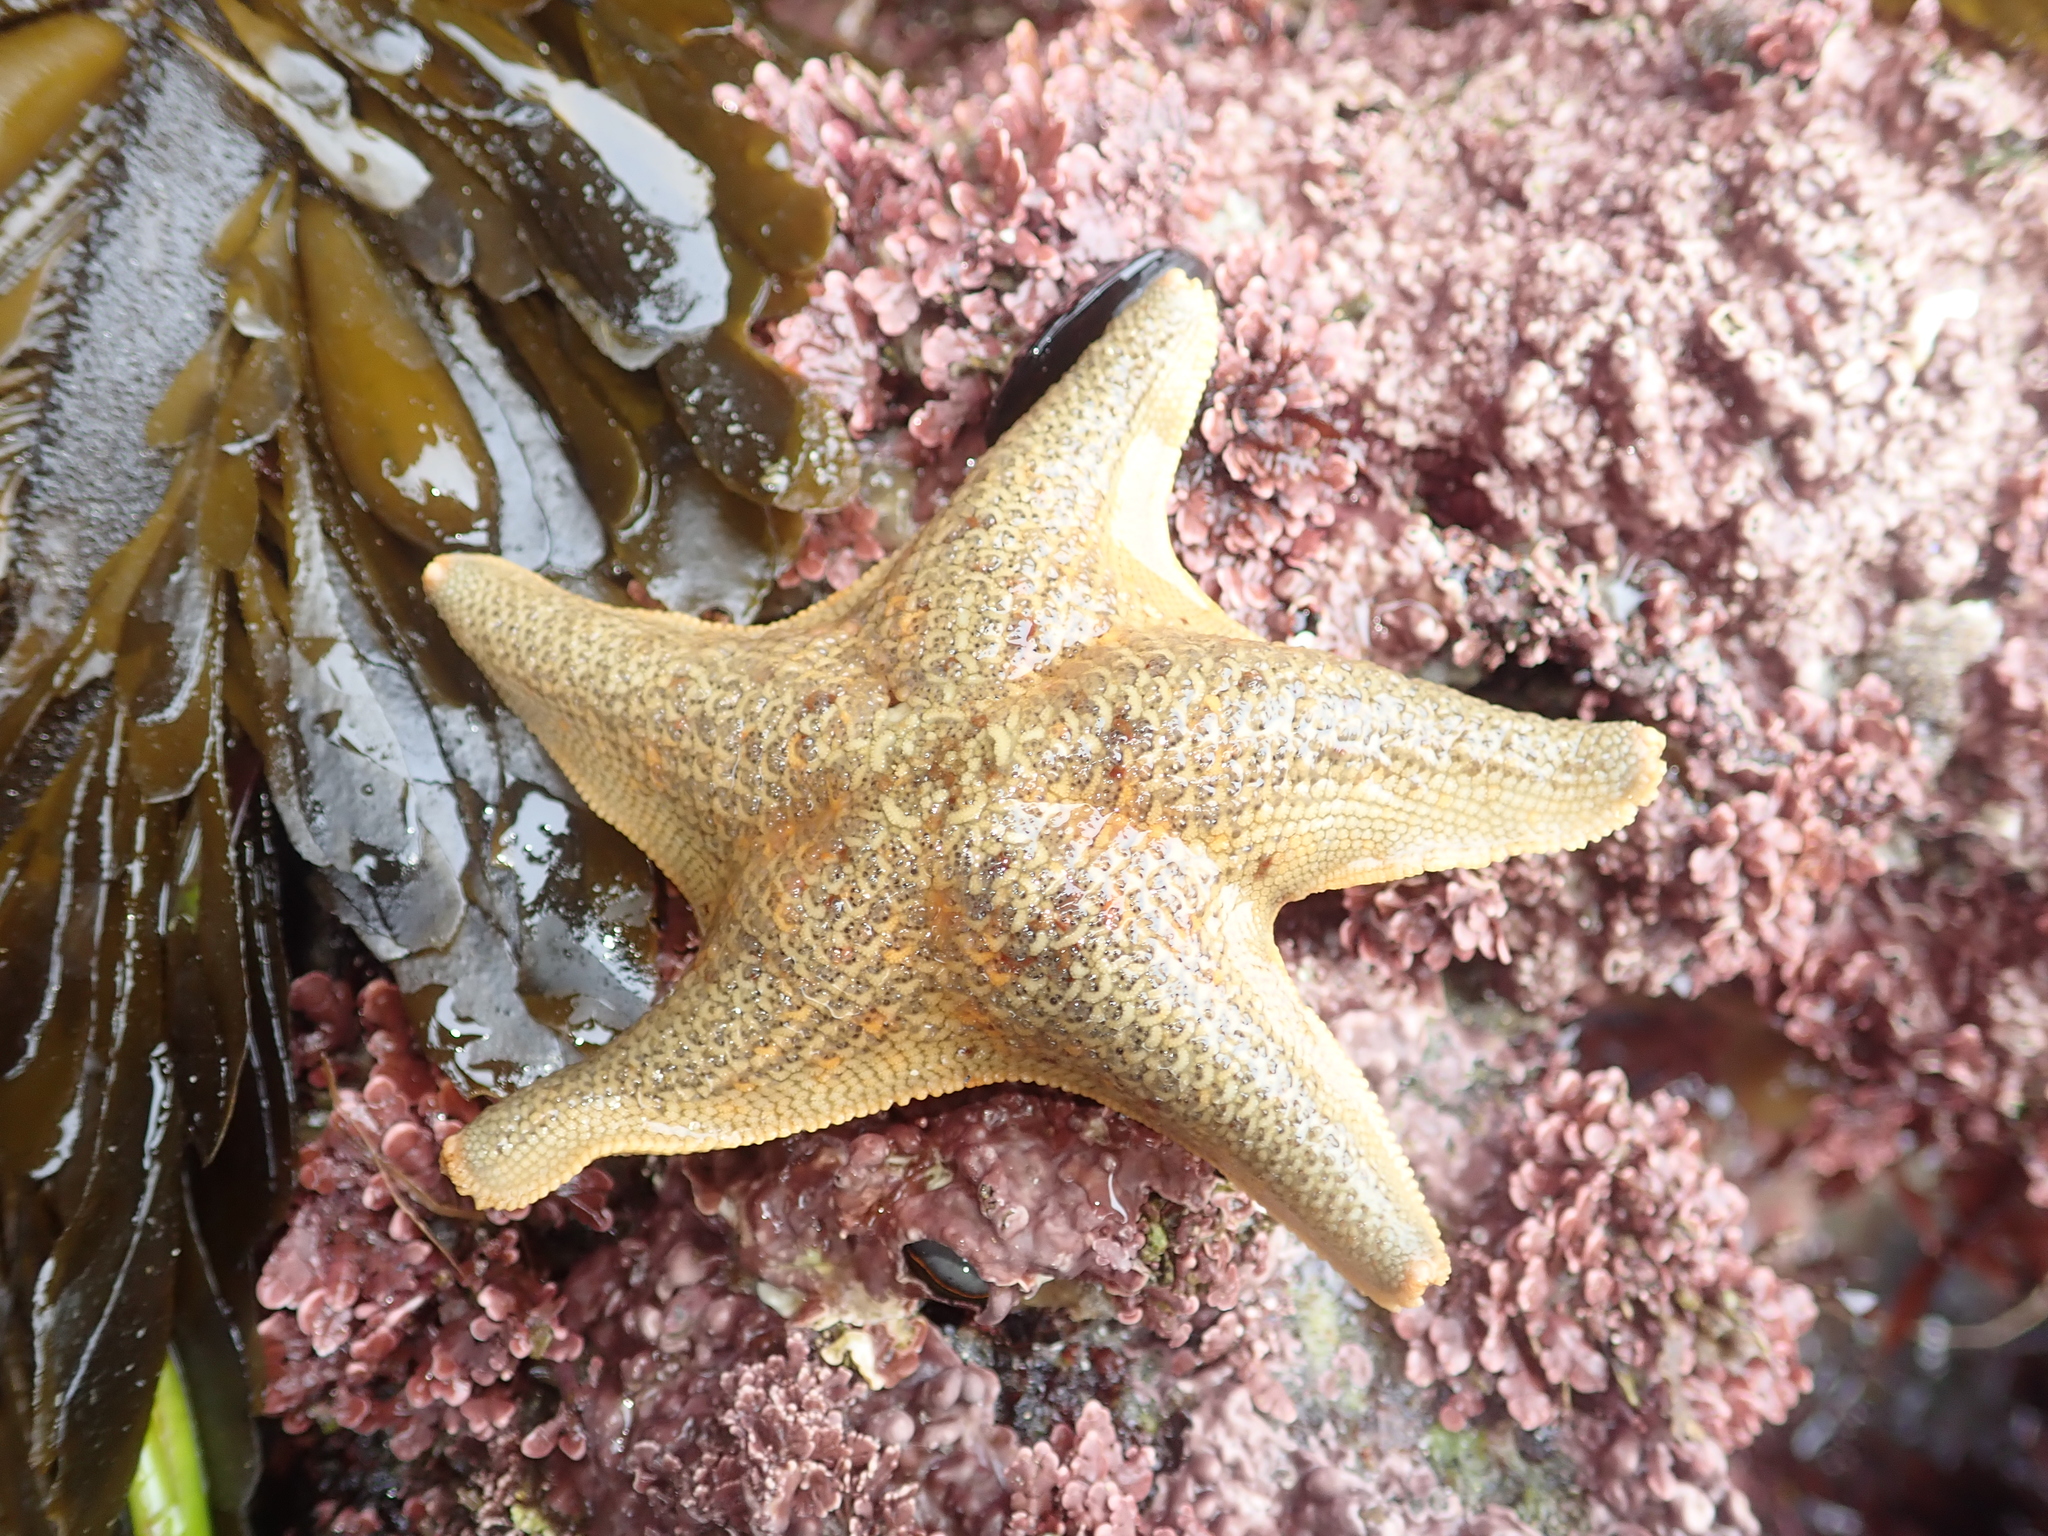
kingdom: Animalia
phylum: Echinodermata
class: Asteroidea
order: Valvatida
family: Asterinidae
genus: Patiria
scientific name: Patiria miniata
